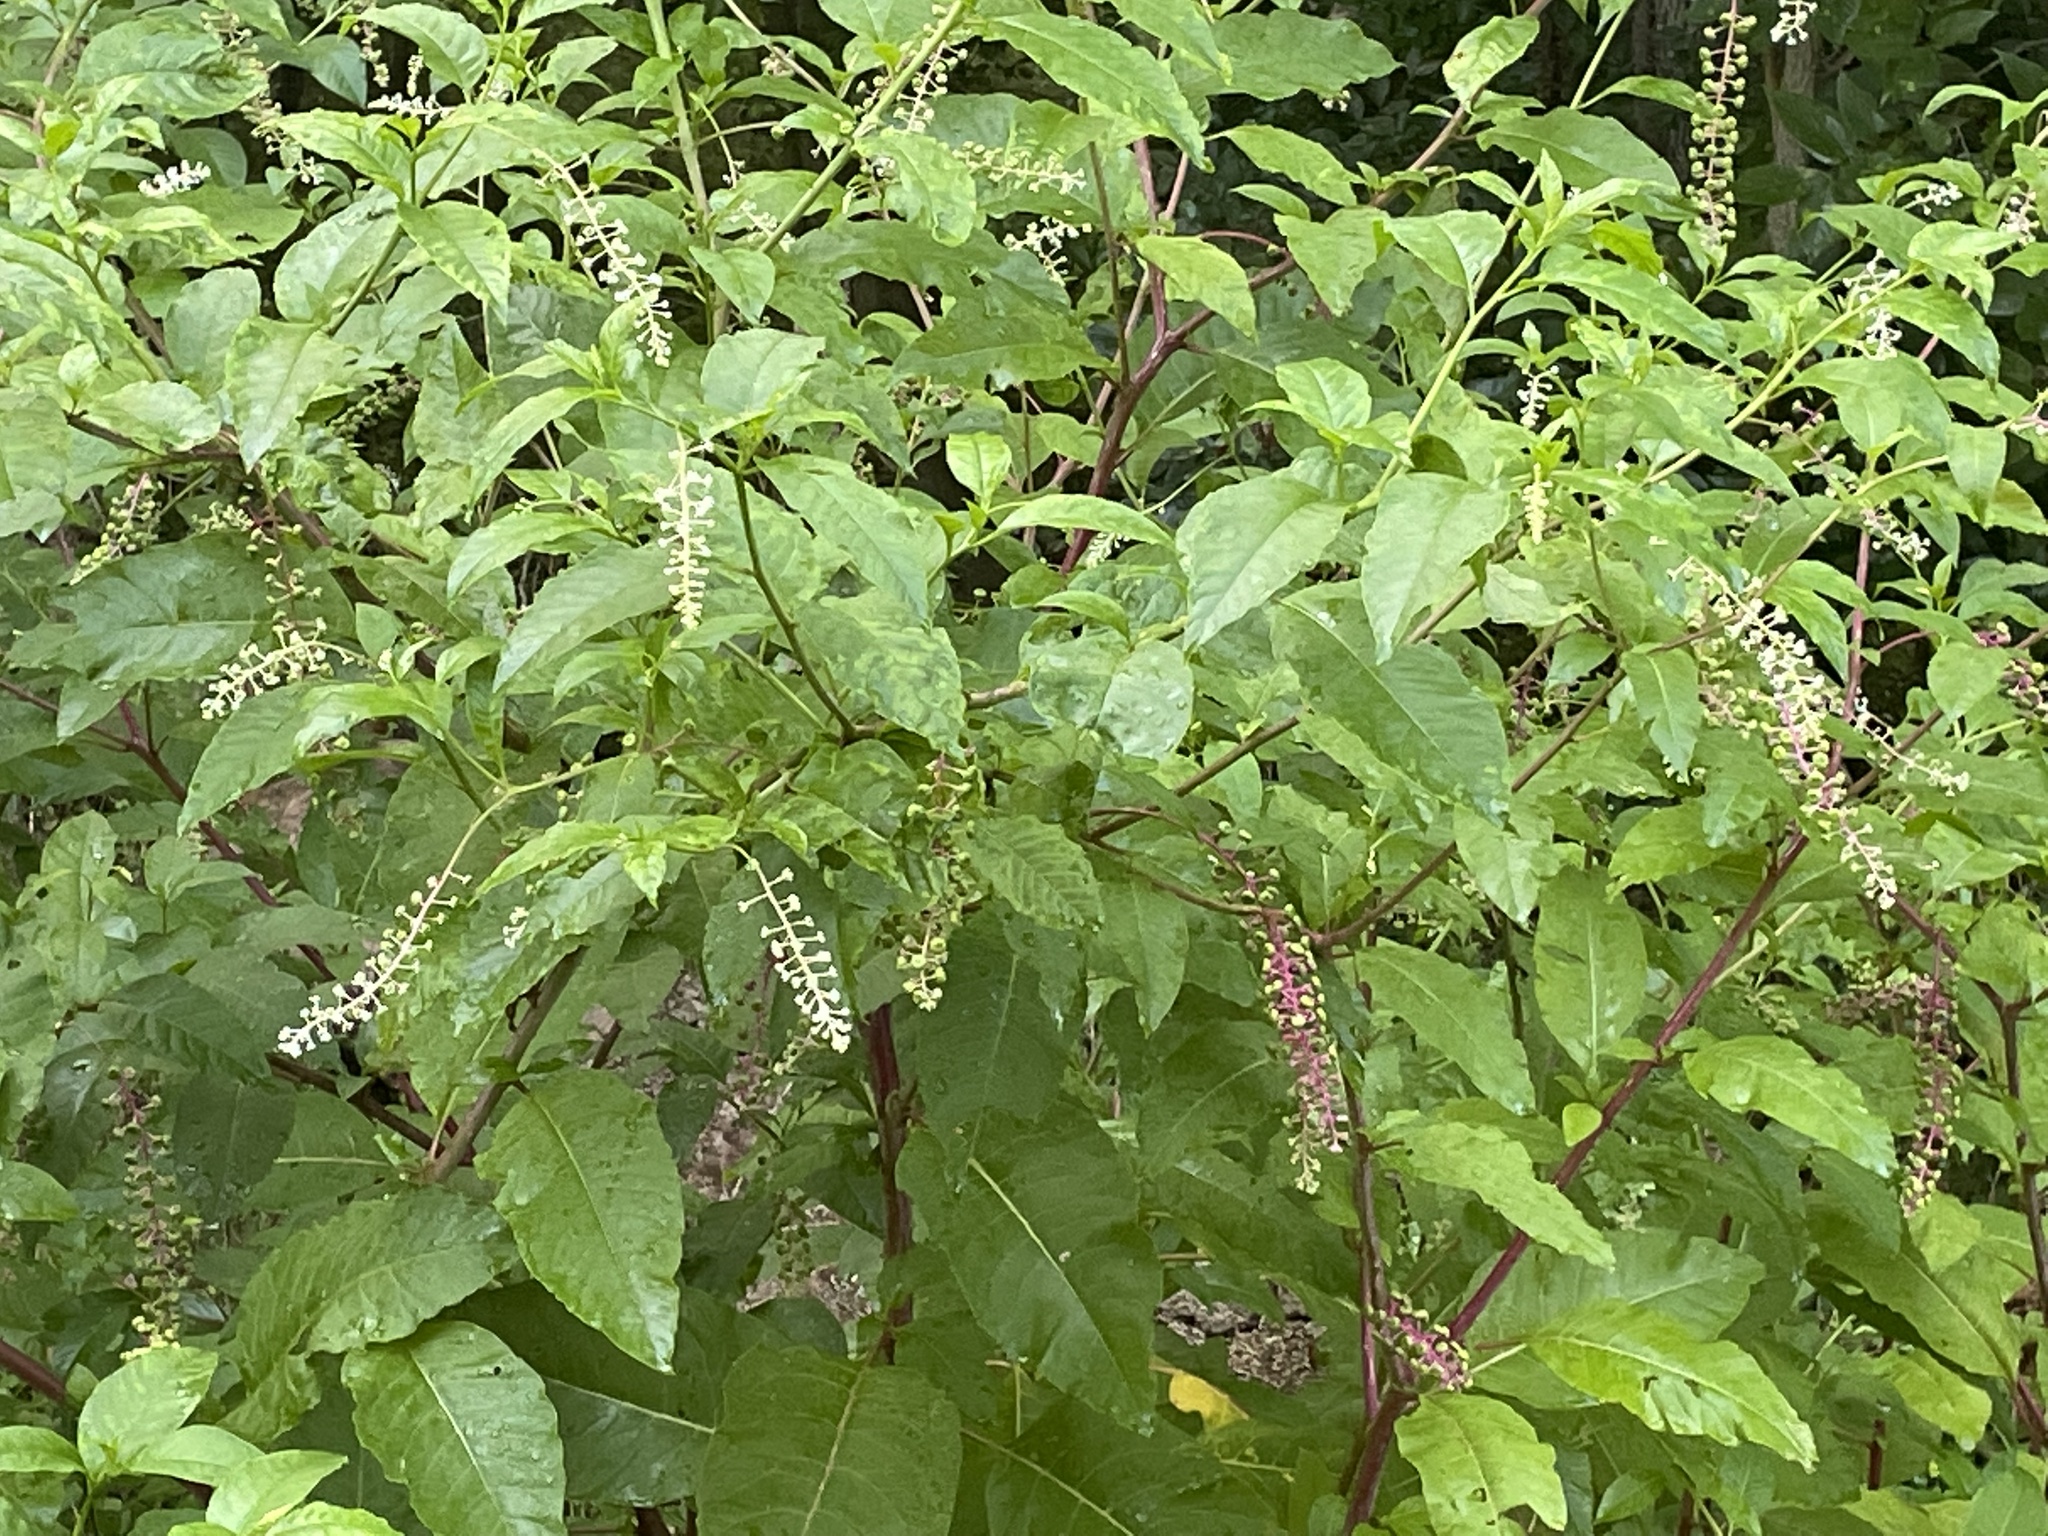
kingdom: Plantae
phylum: Tracheophyta
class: Magnoliopsida
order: Caryophyllales
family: Phytolaccaceae
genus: Phytolacca
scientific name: Phytolacca americana
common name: American pokeweed
